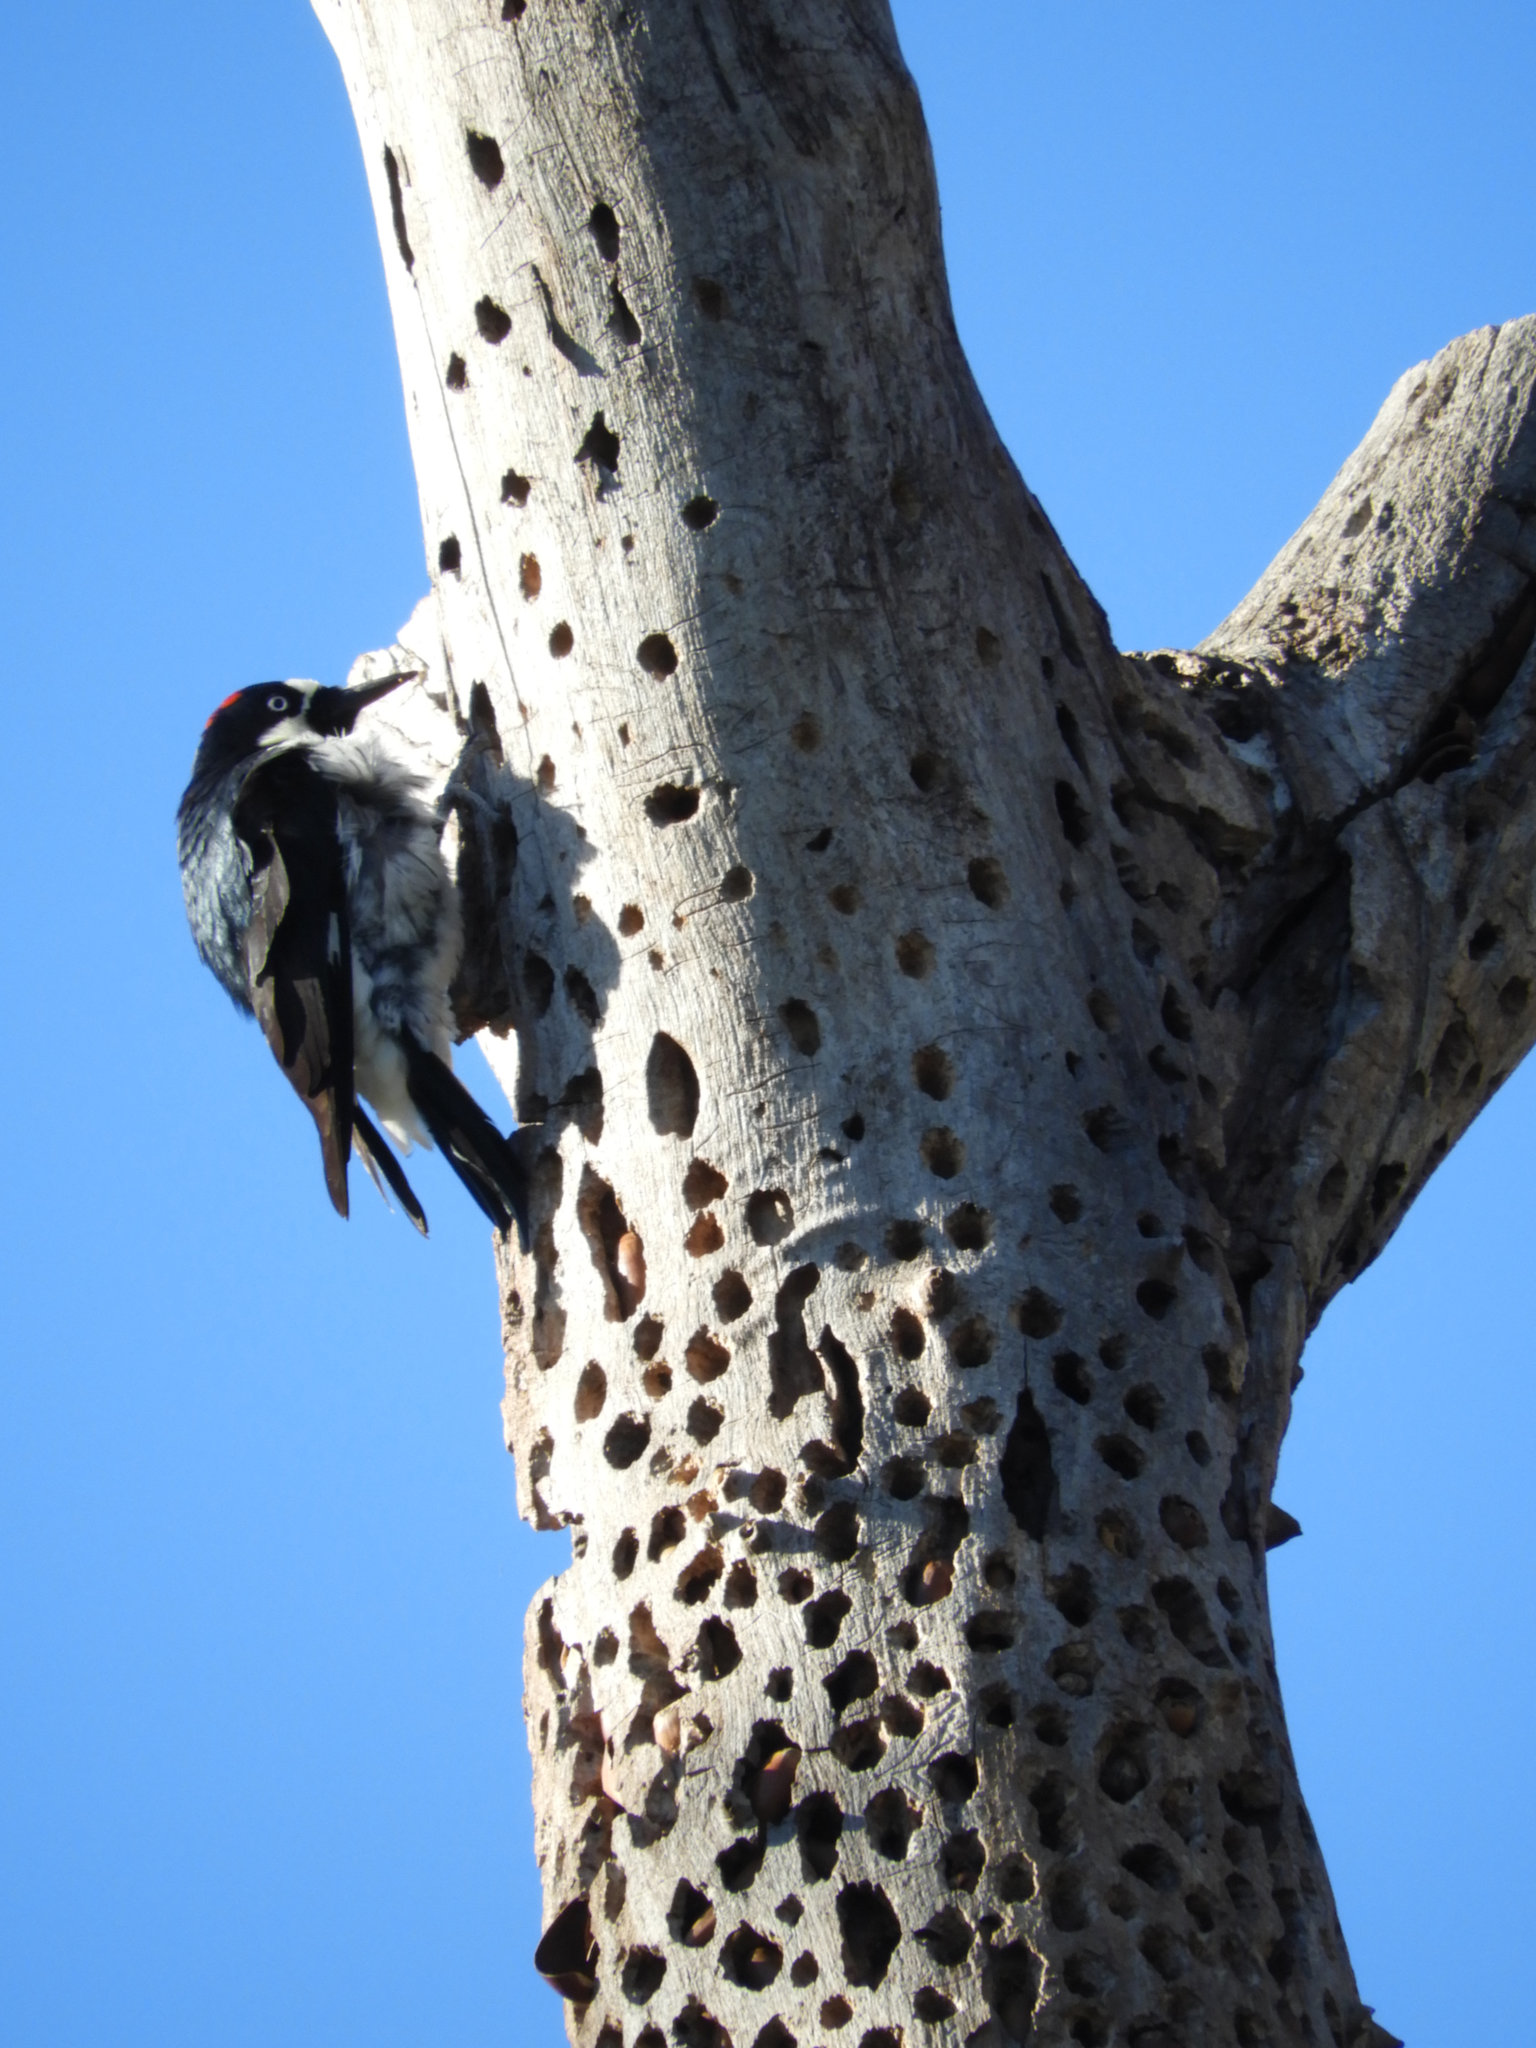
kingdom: Animalia
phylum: Chordata
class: Aves
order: Piciformes
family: Picidae
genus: Melanerpes
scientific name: Melanerpes formicivorus
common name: Acorn woodpecker
